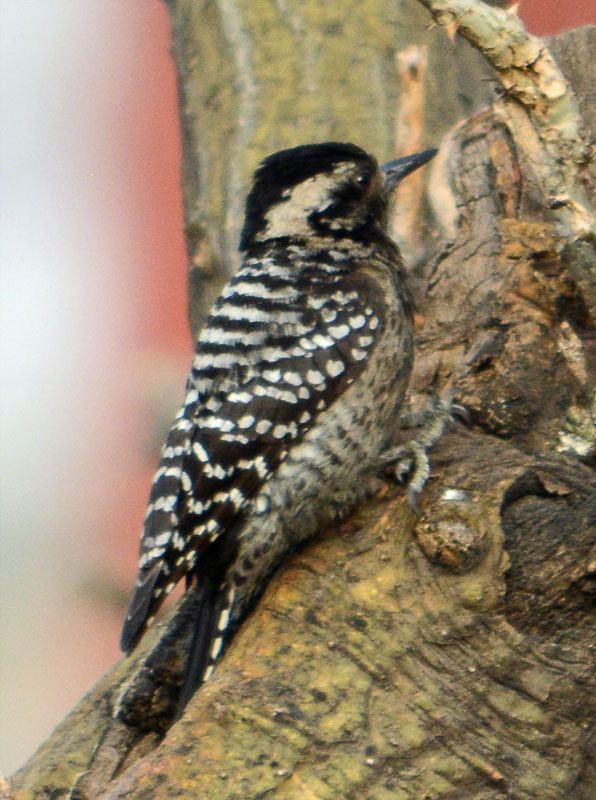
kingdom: Animalia
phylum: Chordata
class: Aves
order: Piciformes
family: Picidae
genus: Dryobates
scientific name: Dryobates scalaris
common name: Ladder-backed woodpecker
